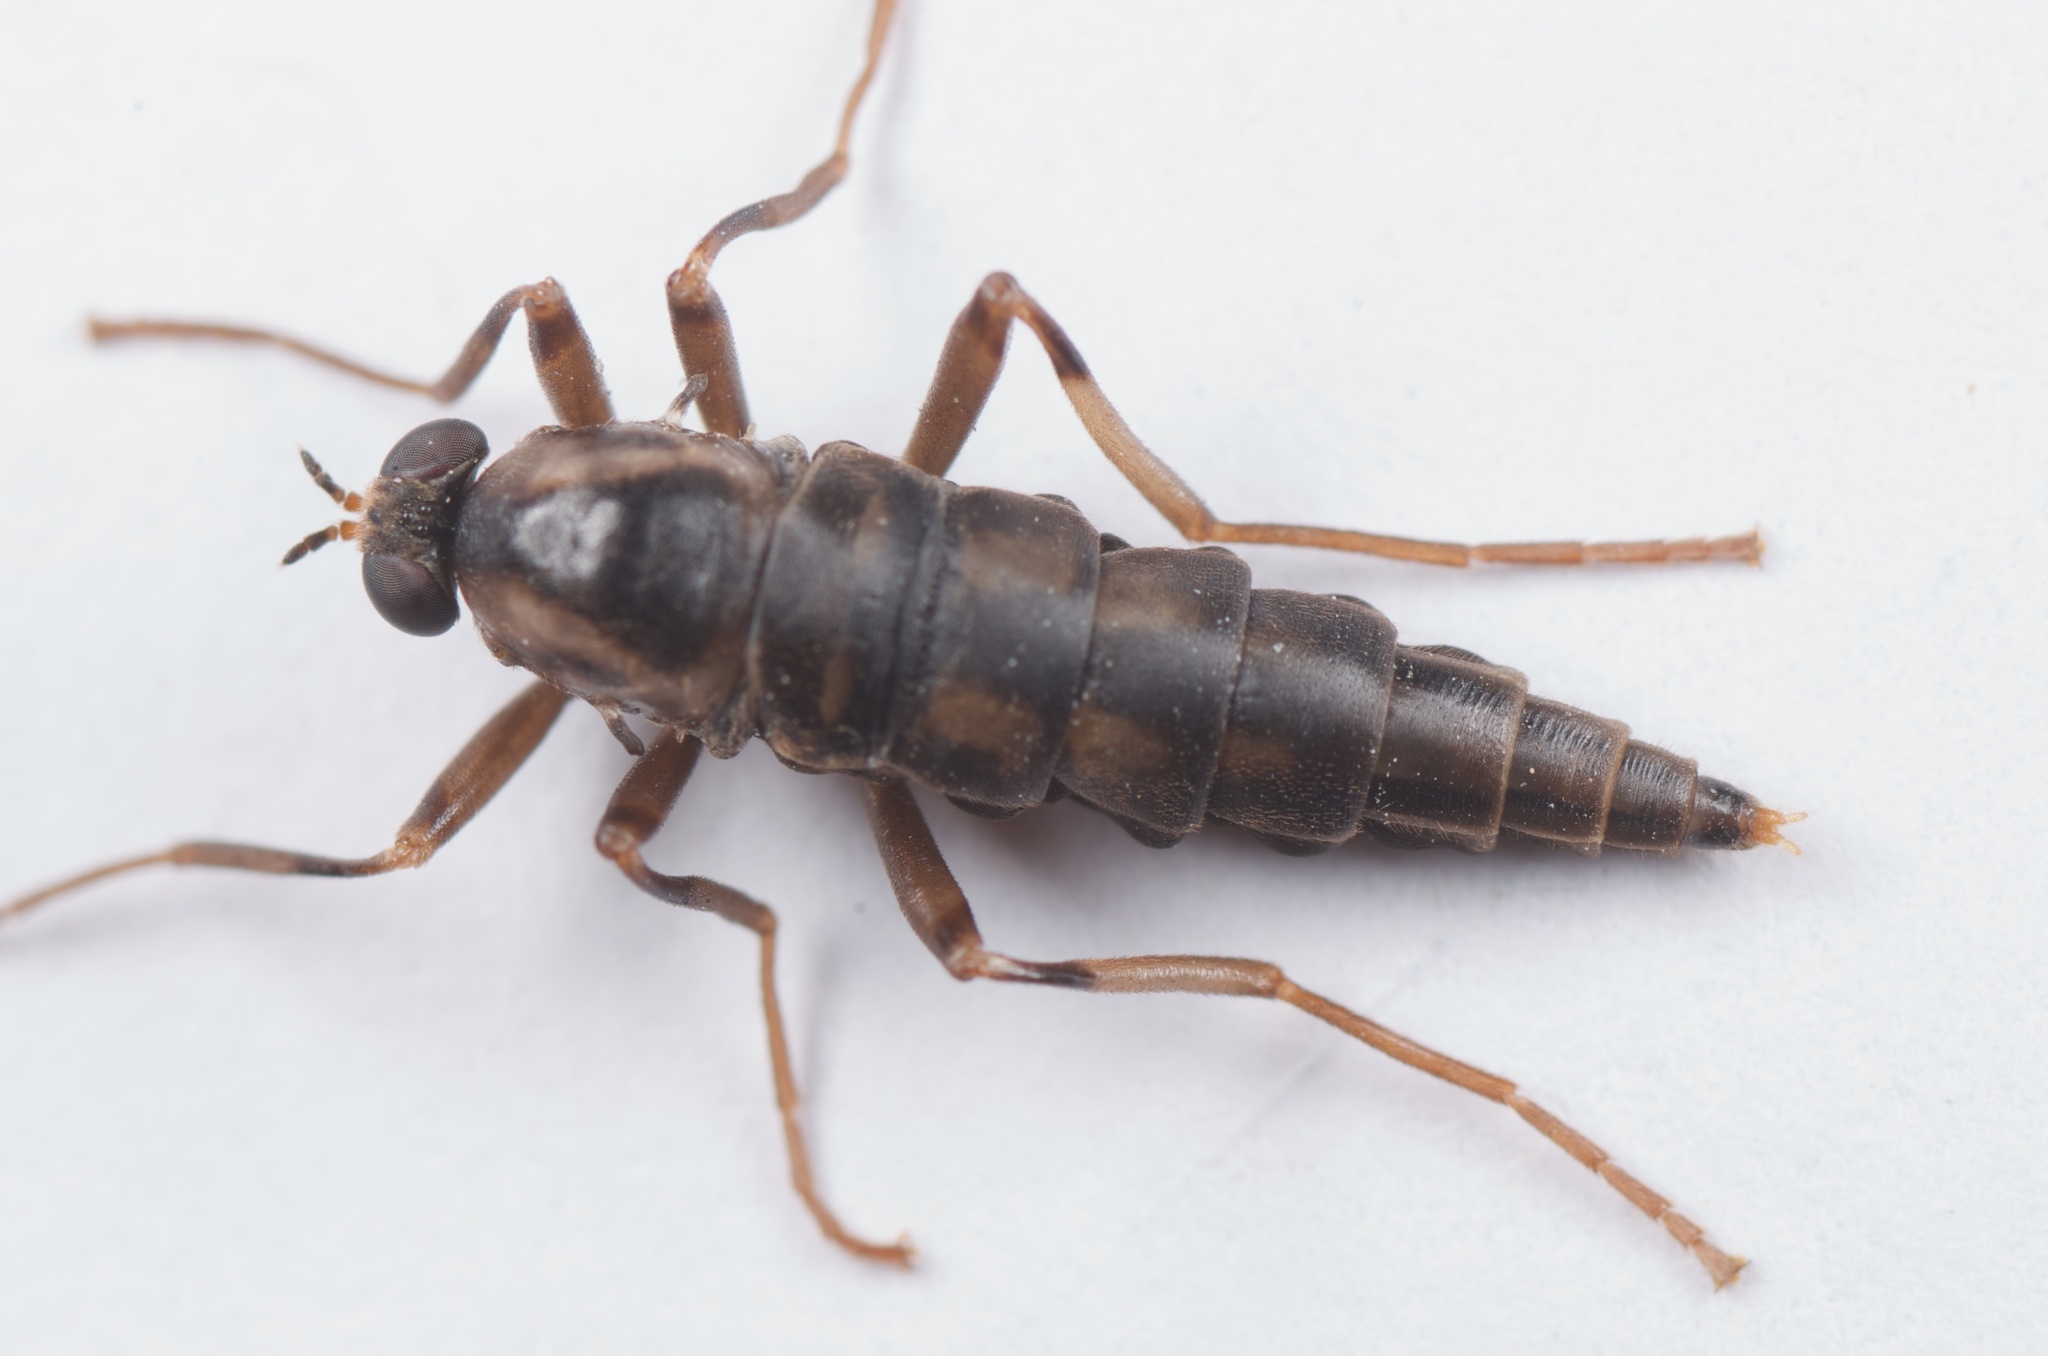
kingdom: Animalia
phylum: Arthropoda
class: Insecta
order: Diptera
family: Stratiomyidae
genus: Boreoides
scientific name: Boreoides tasmaniensis
